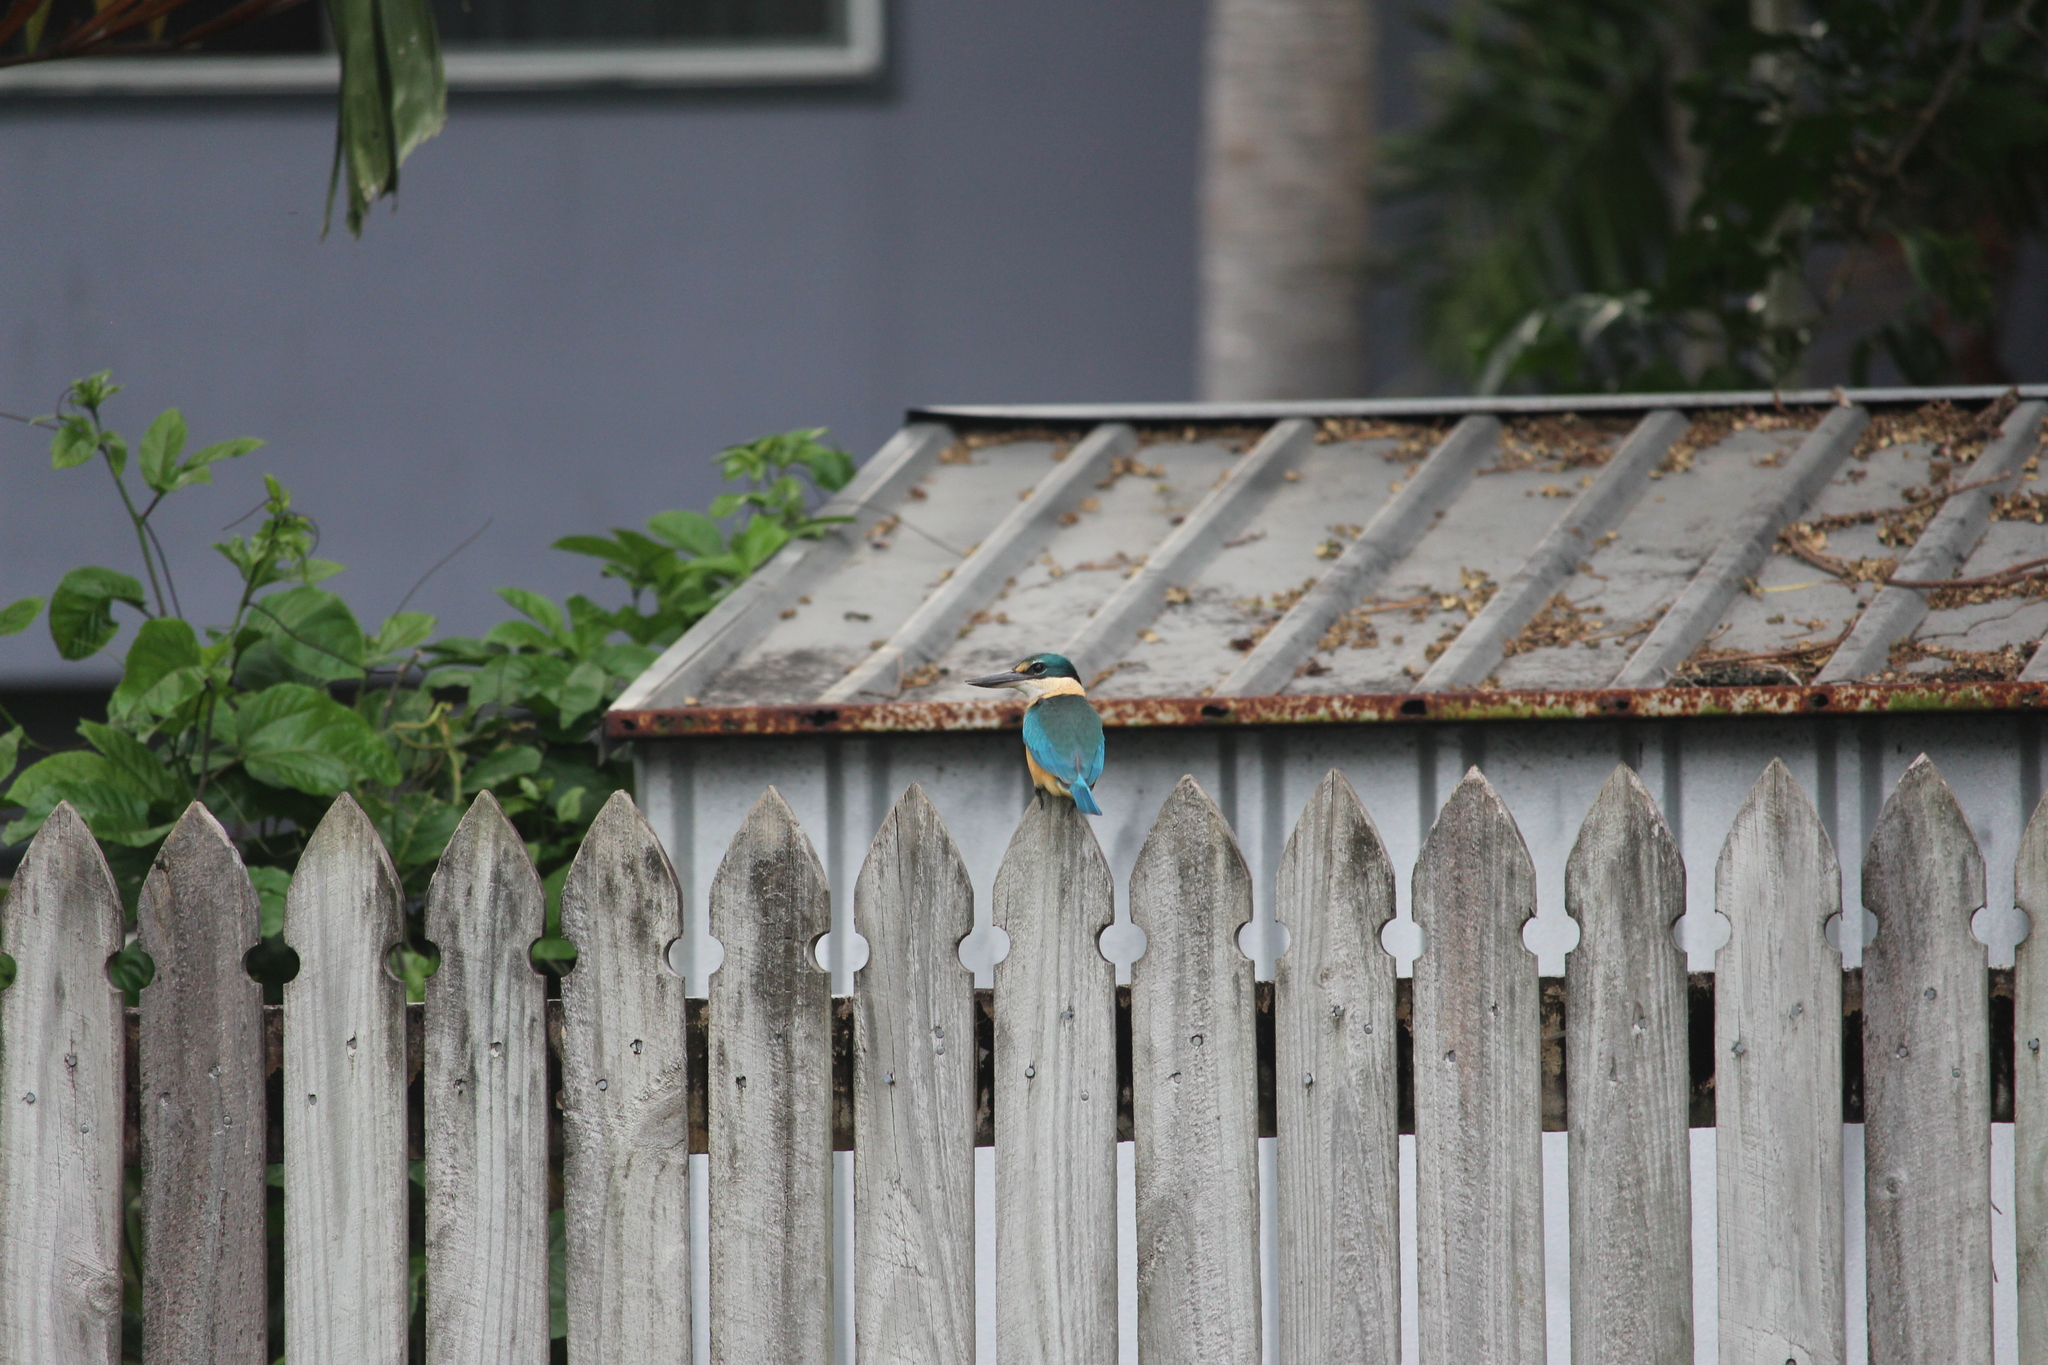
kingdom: Animalia
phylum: Chordata
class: Aves
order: Coraciiformes
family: Alcedinidae
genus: Todiramphus
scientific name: Todiramphus sanctus
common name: Sacred kingfisher
